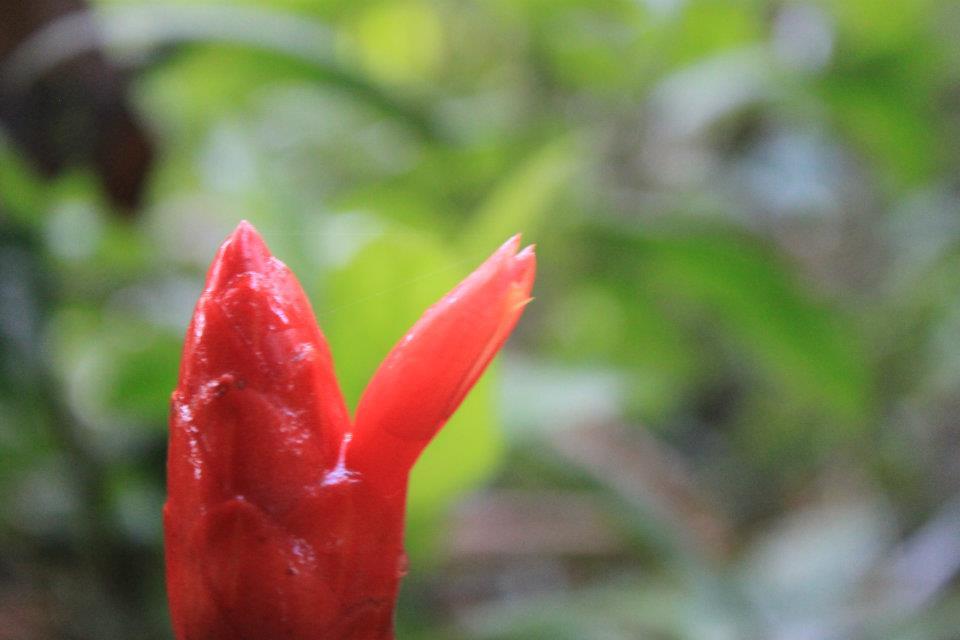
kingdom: Plantae
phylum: Tracheophyta
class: Liliopsida
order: Zingiberales
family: Costaceae
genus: Costus
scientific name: Costus pulverulentus
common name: Spiral ginger
